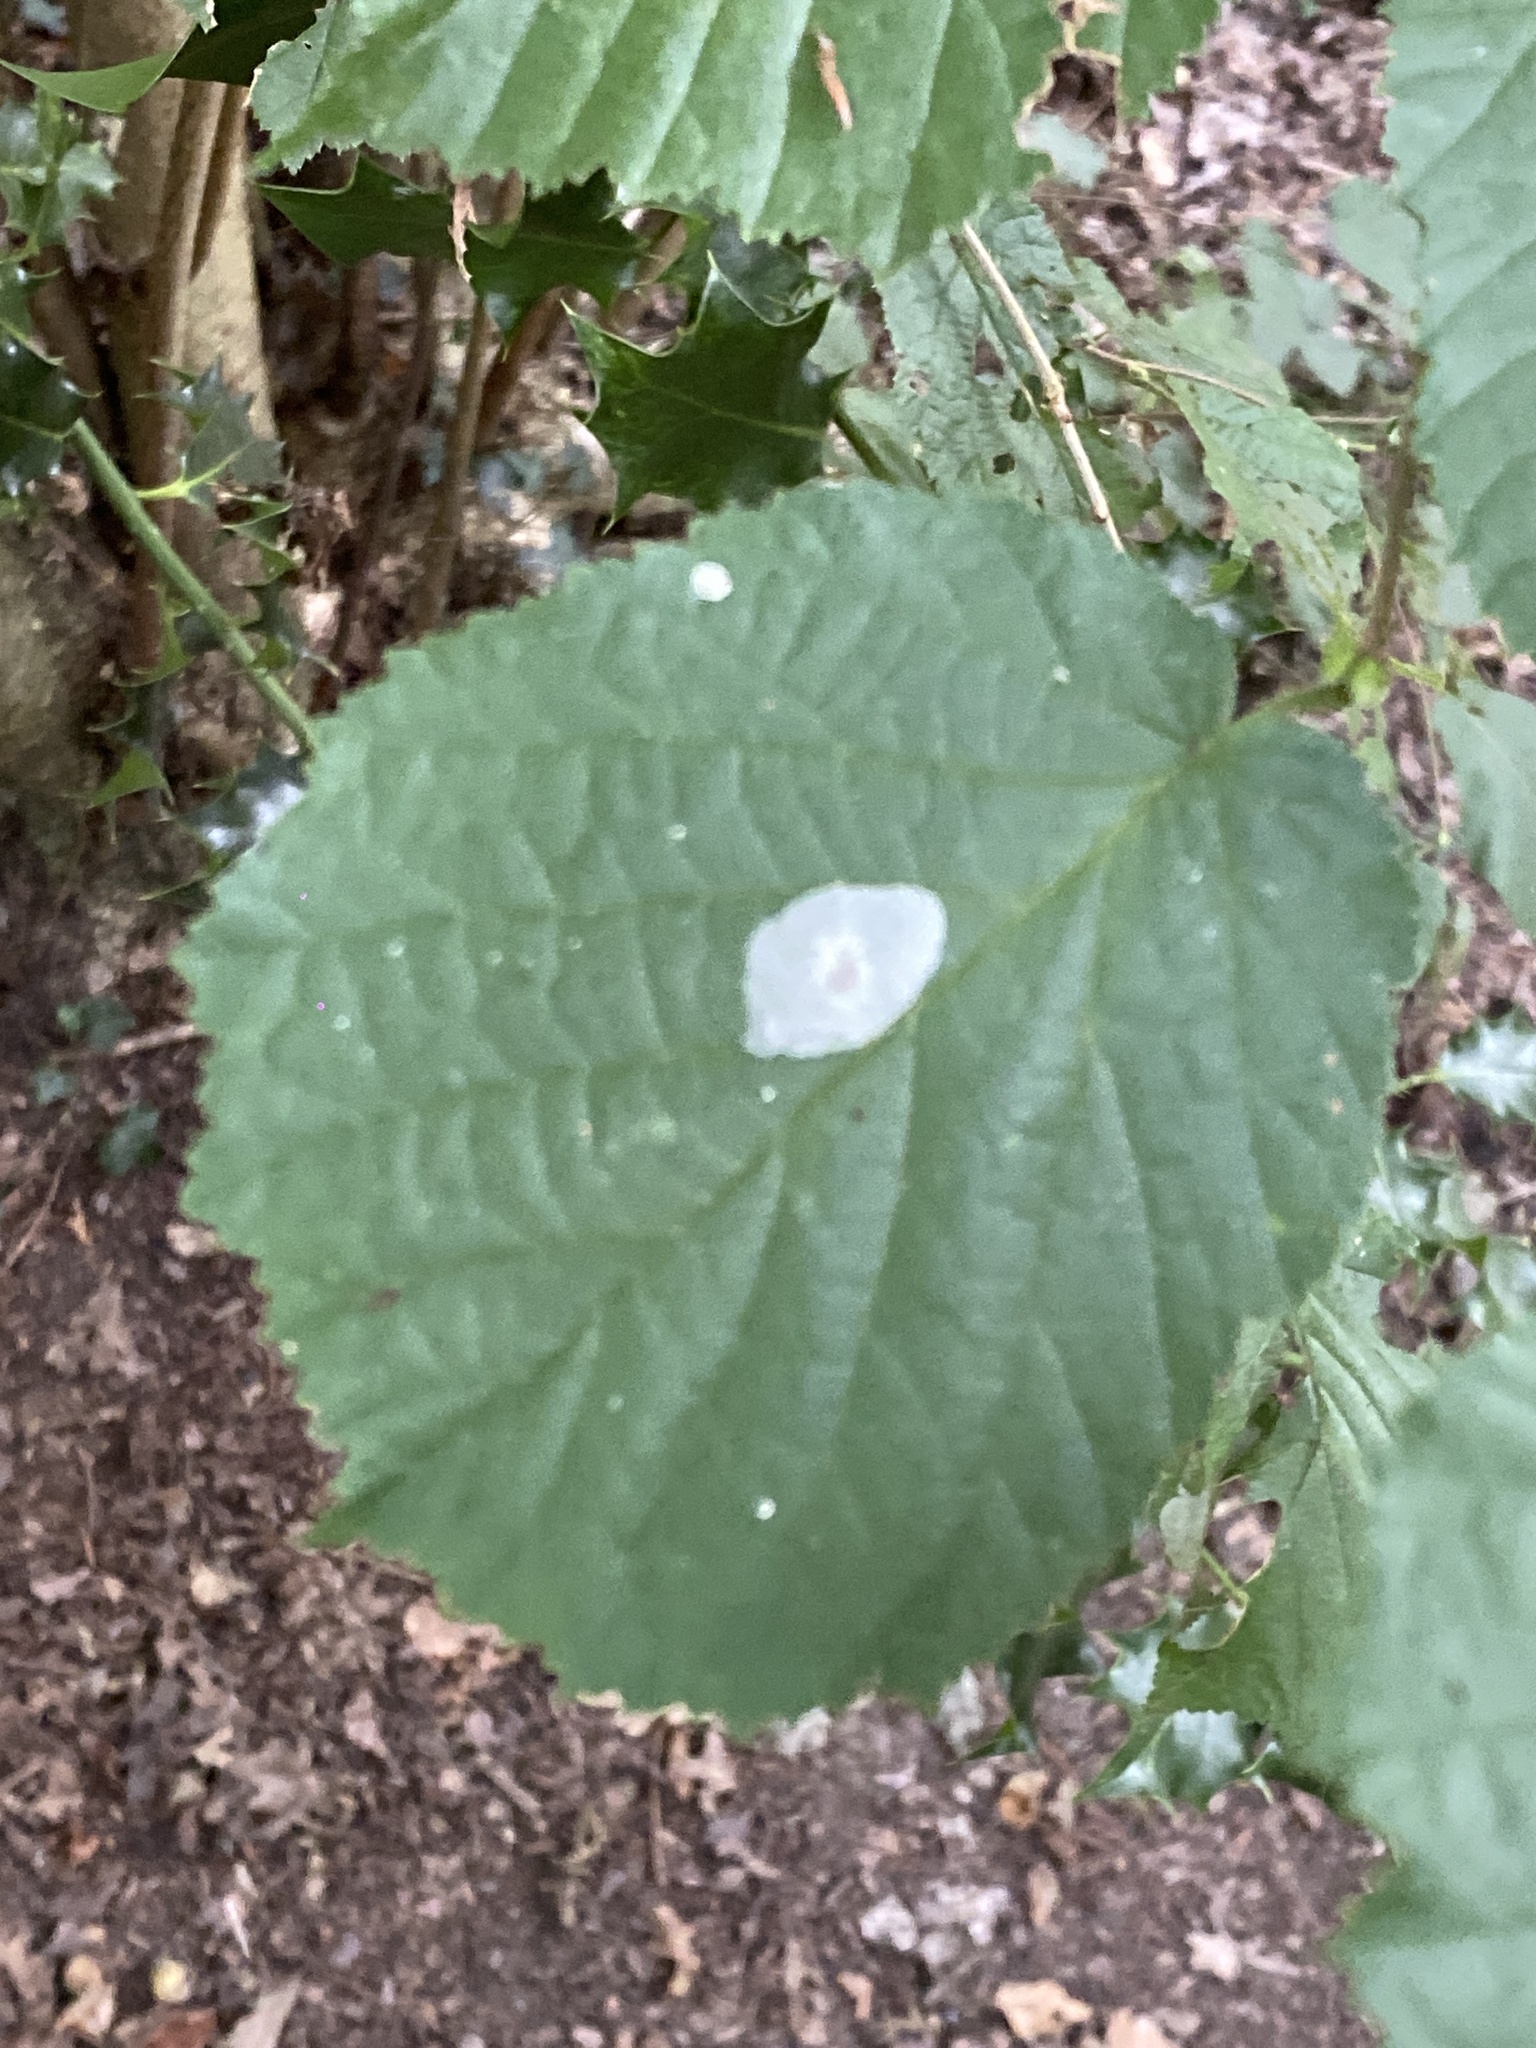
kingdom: Animalia
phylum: Arthropoda
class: Insecta
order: Lepidoptera
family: Gracillariidae
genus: Phyllonorycter
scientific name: Phyllonorycter coryli
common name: Nut-leaf blister moth
